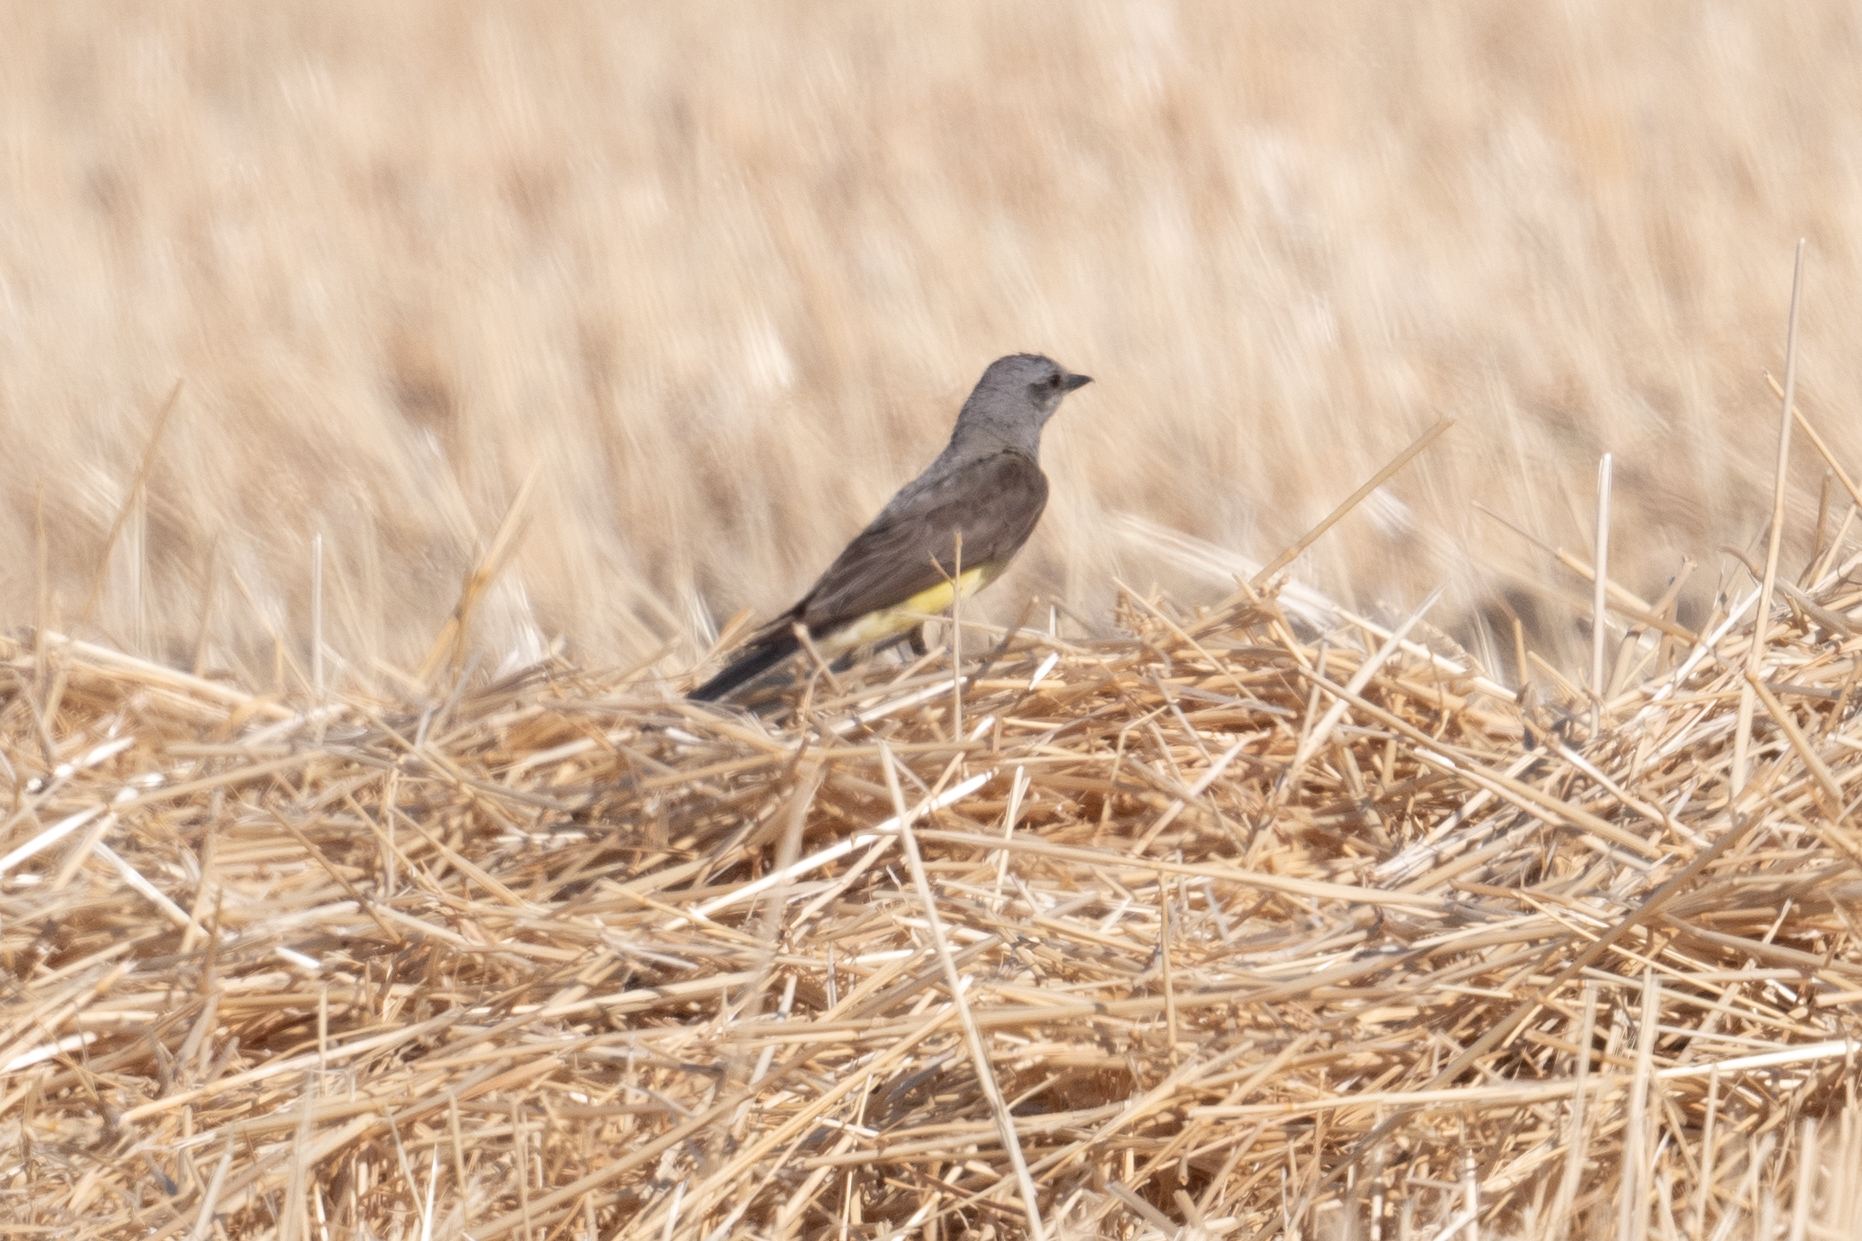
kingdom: Animalia
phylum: Chordata
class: Aves
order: Passeriformes
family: Tyrannidae
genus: Tyrannus
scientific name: Tyrannus verticalis
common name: Western kingbird
